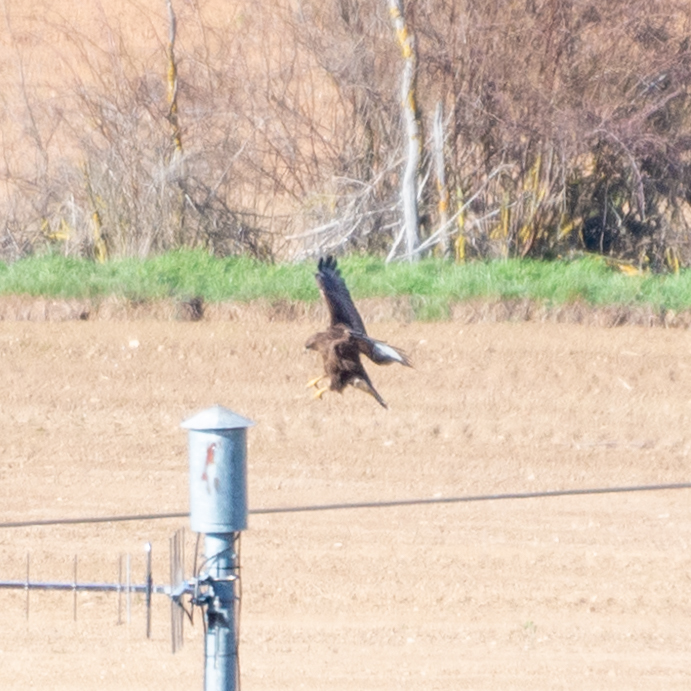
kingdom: Animalia
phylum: Chordata
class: Aves
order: Accipitriformes
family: Accipitridae
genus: Buteo
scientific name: Buteo buteo
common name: Common buzzard
